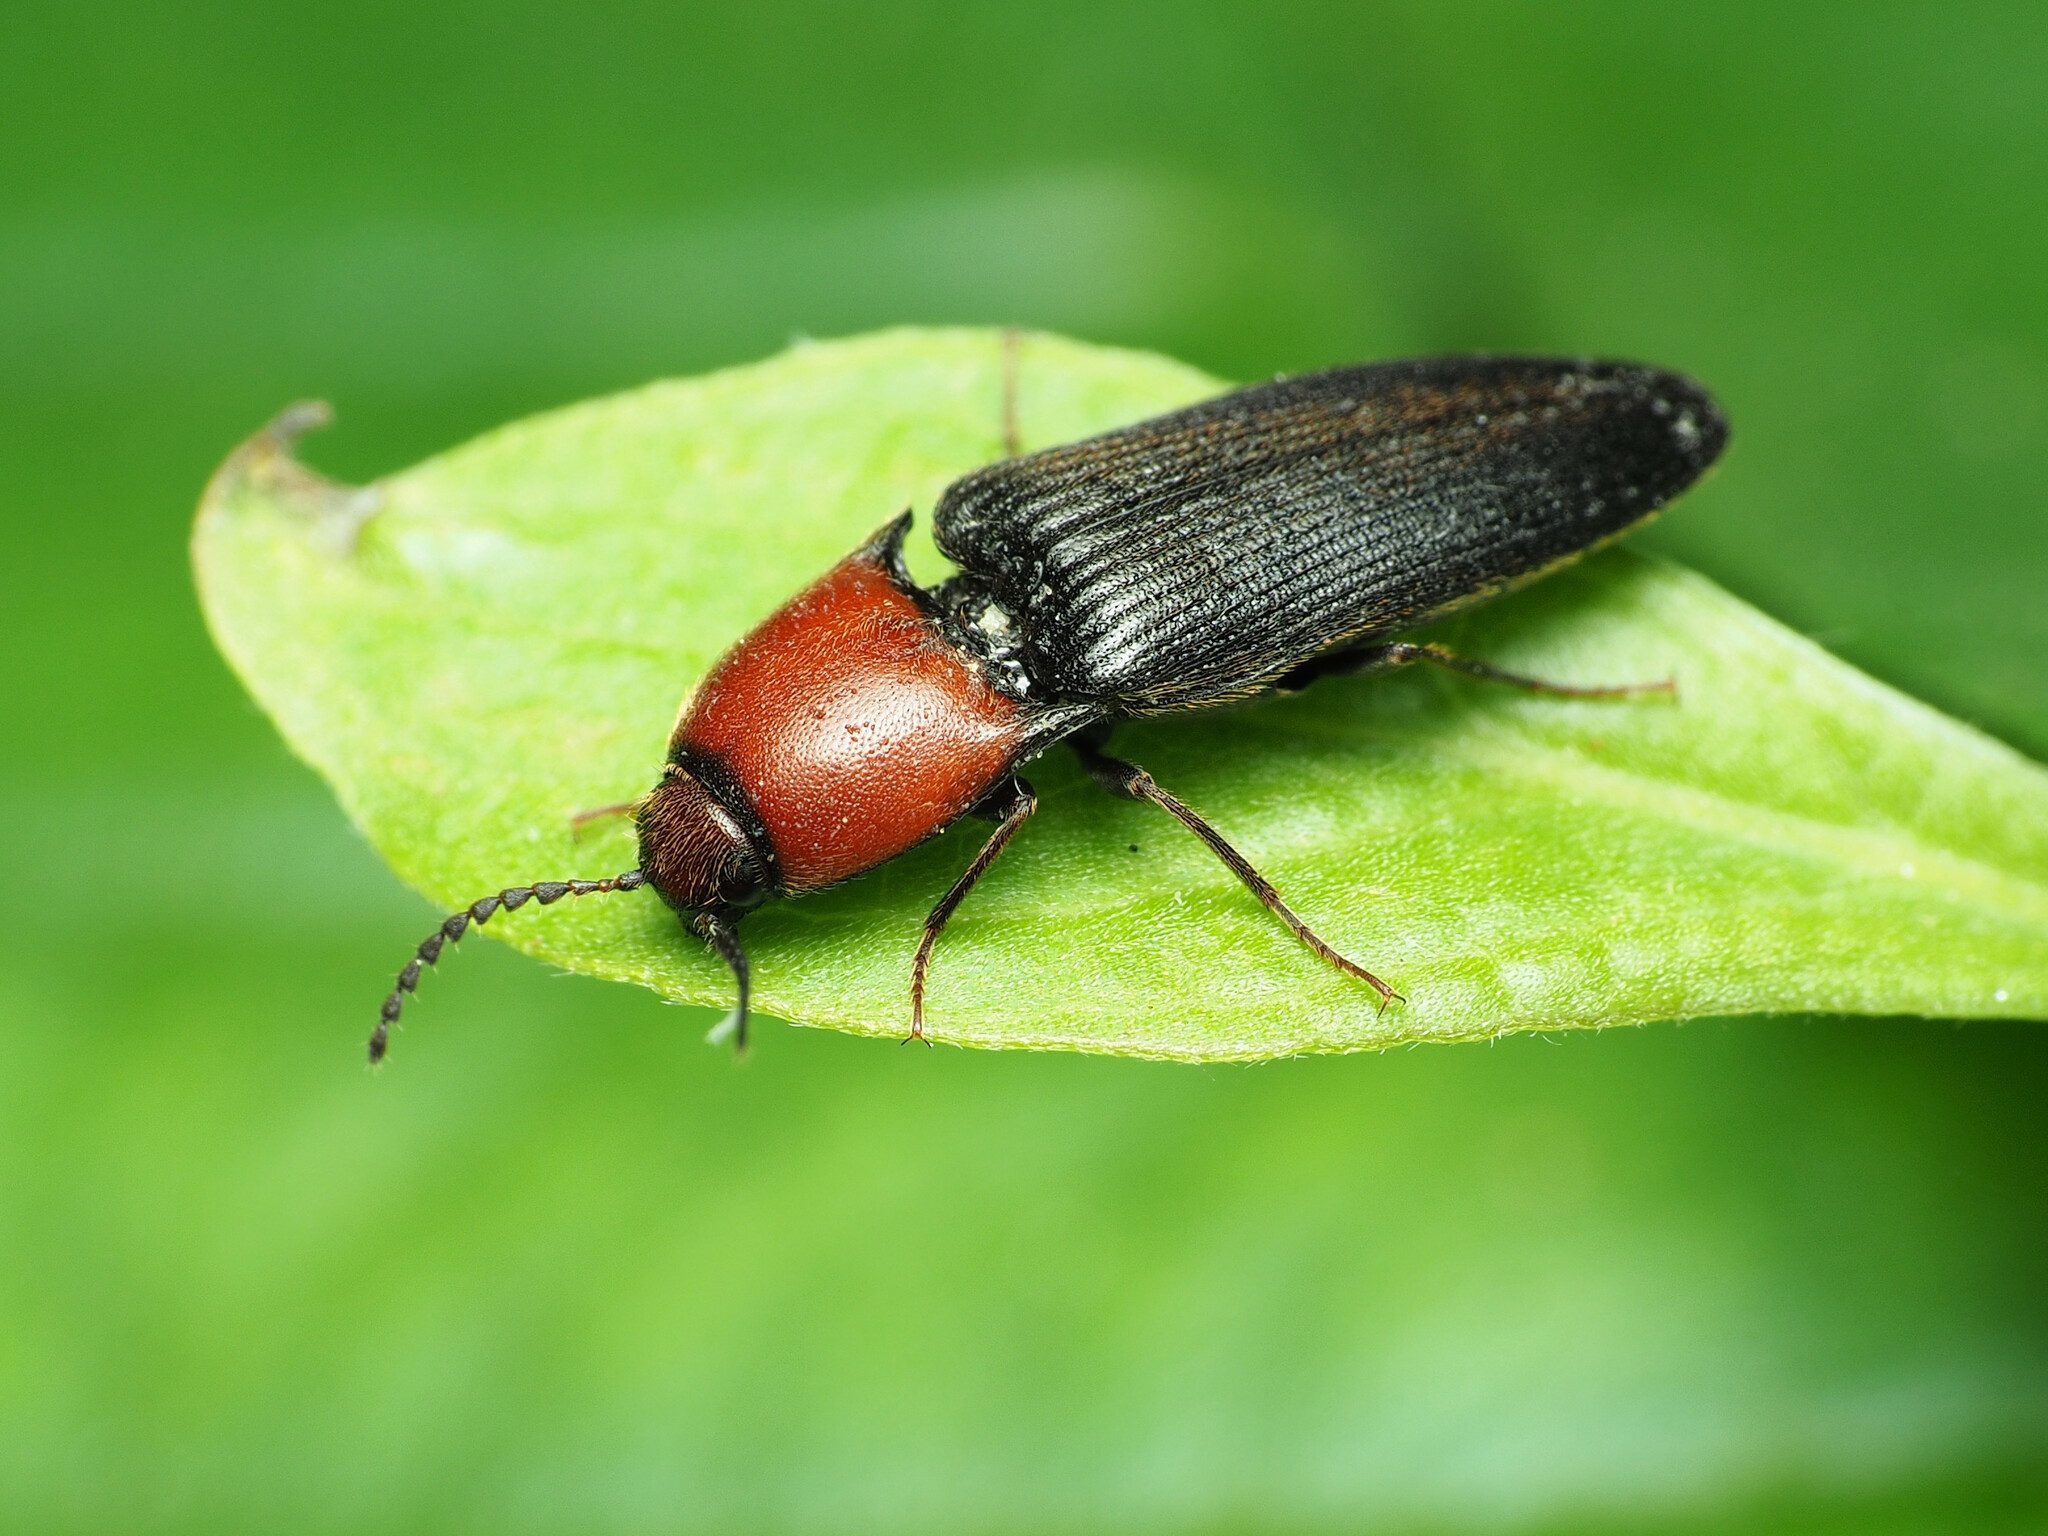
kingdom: Animalia
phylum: Arthropoda
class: Insecta
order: Coleoptera
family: Elateridae
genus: Ampedus
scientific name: Ampedus rubricollis
